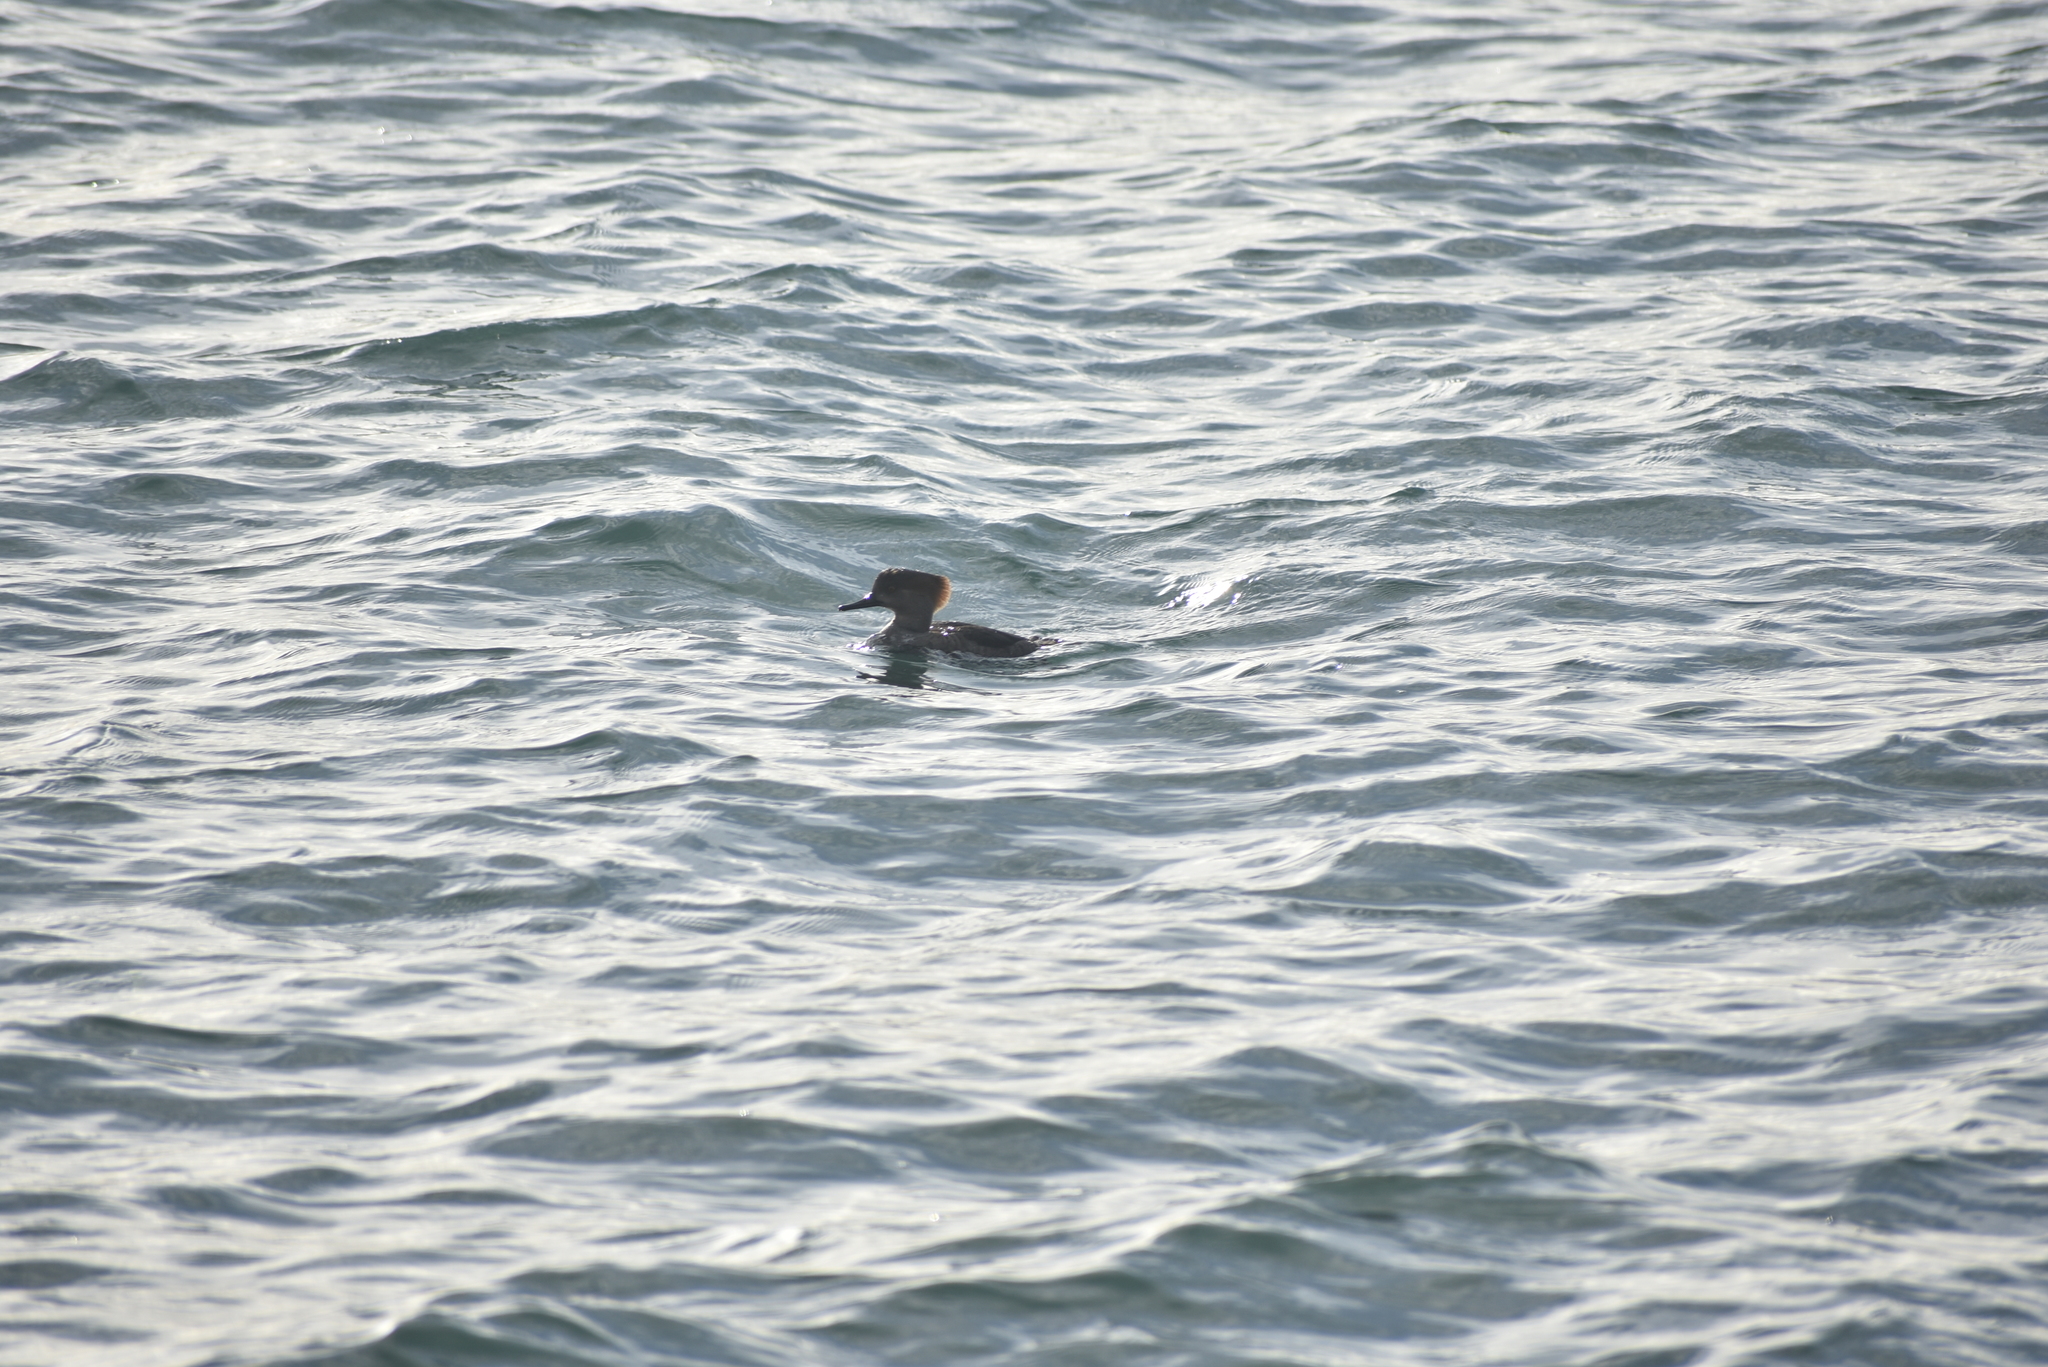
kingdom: Animalia
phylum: Chordata
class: Aves
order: Anseriformes
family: Anatidae
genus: Lophodytes
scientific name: Lophodytes cucullatus
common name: Hooded merganser
